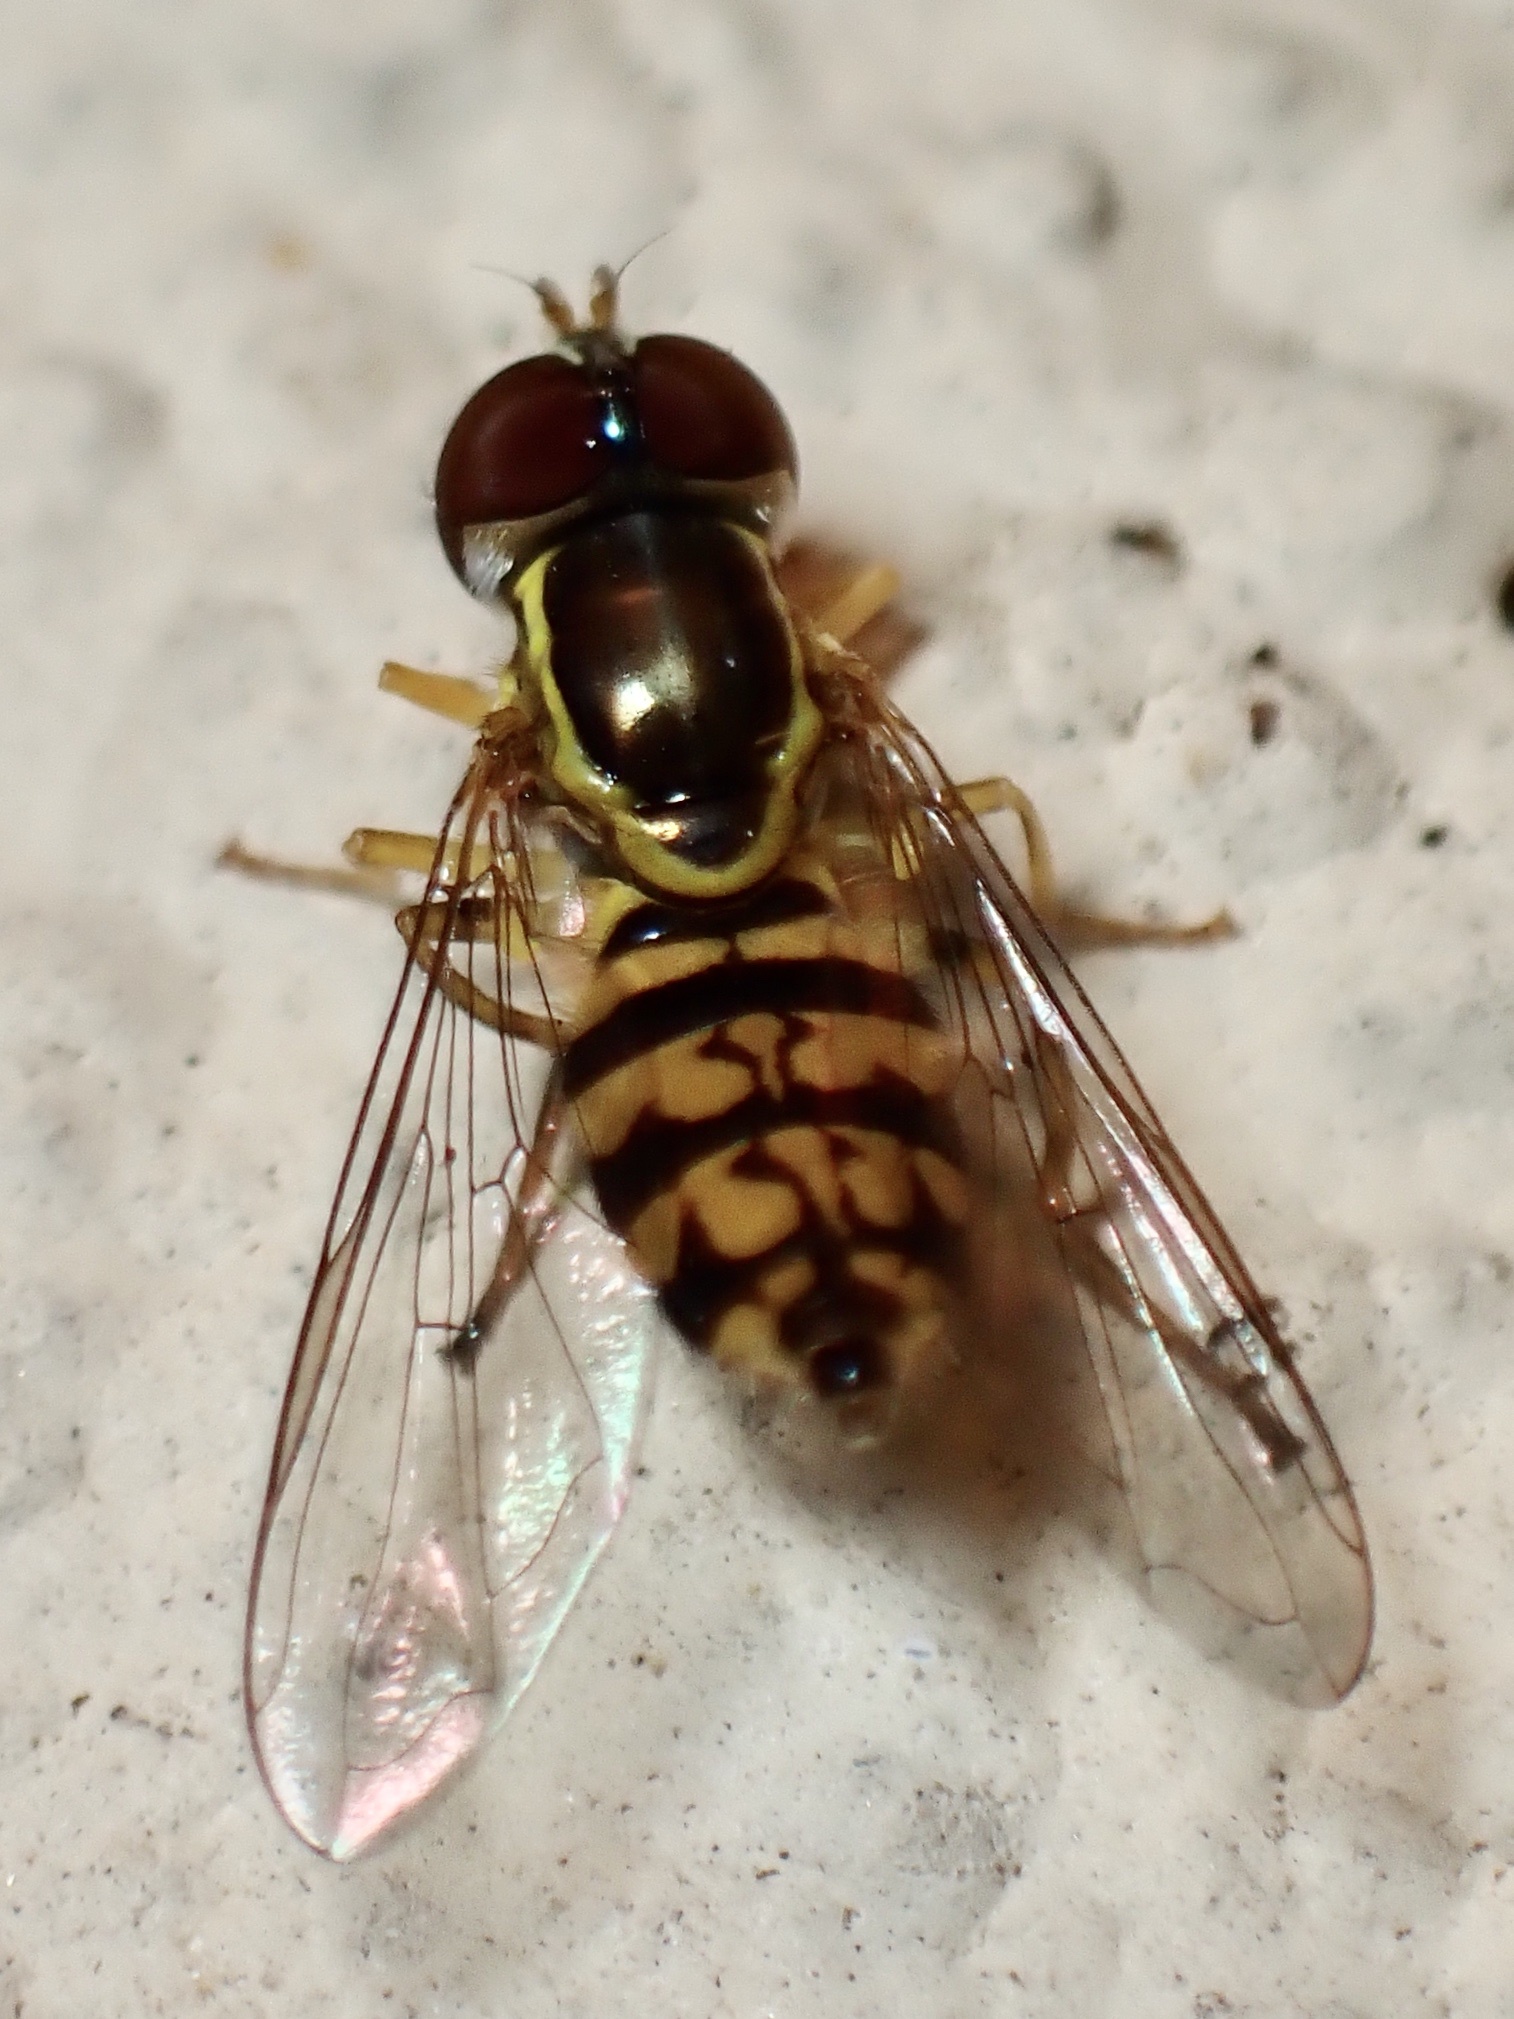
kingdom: Animalia
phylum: Arthropoda
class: Insecta
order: Diptera
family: Syrphidae
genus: Toxomerus
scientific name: Toxomerus geminatus
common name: Eastern calligrapher
